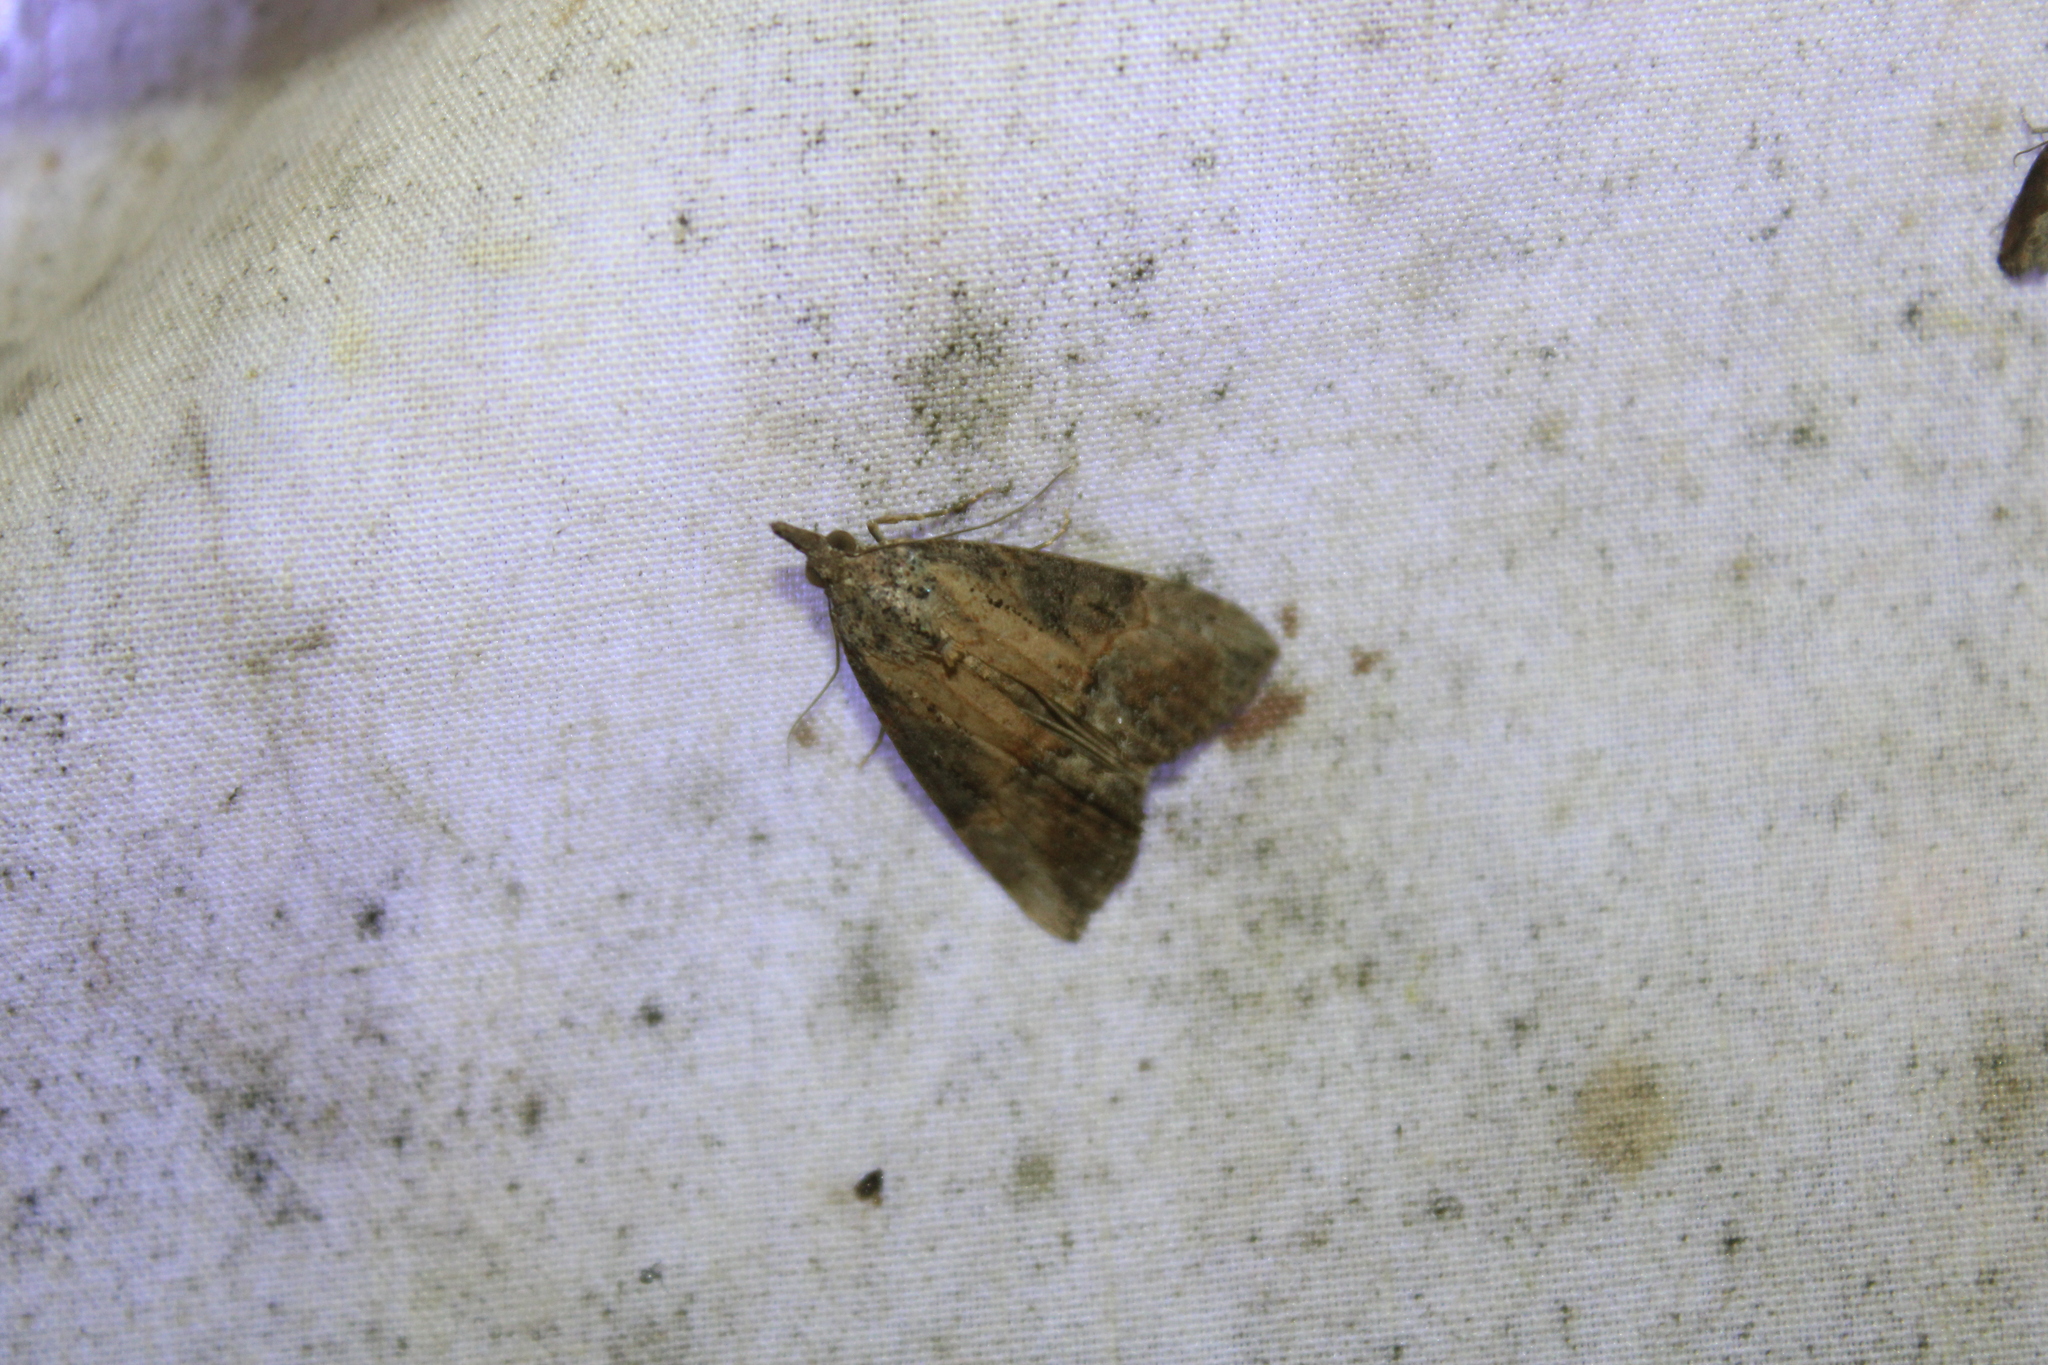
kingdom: Animalia
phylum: Arthropoda
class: Insecta
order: Lepidoptera
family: Erebidae
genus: Hypena
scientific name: Hypena scabra
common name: Green cloverworm
